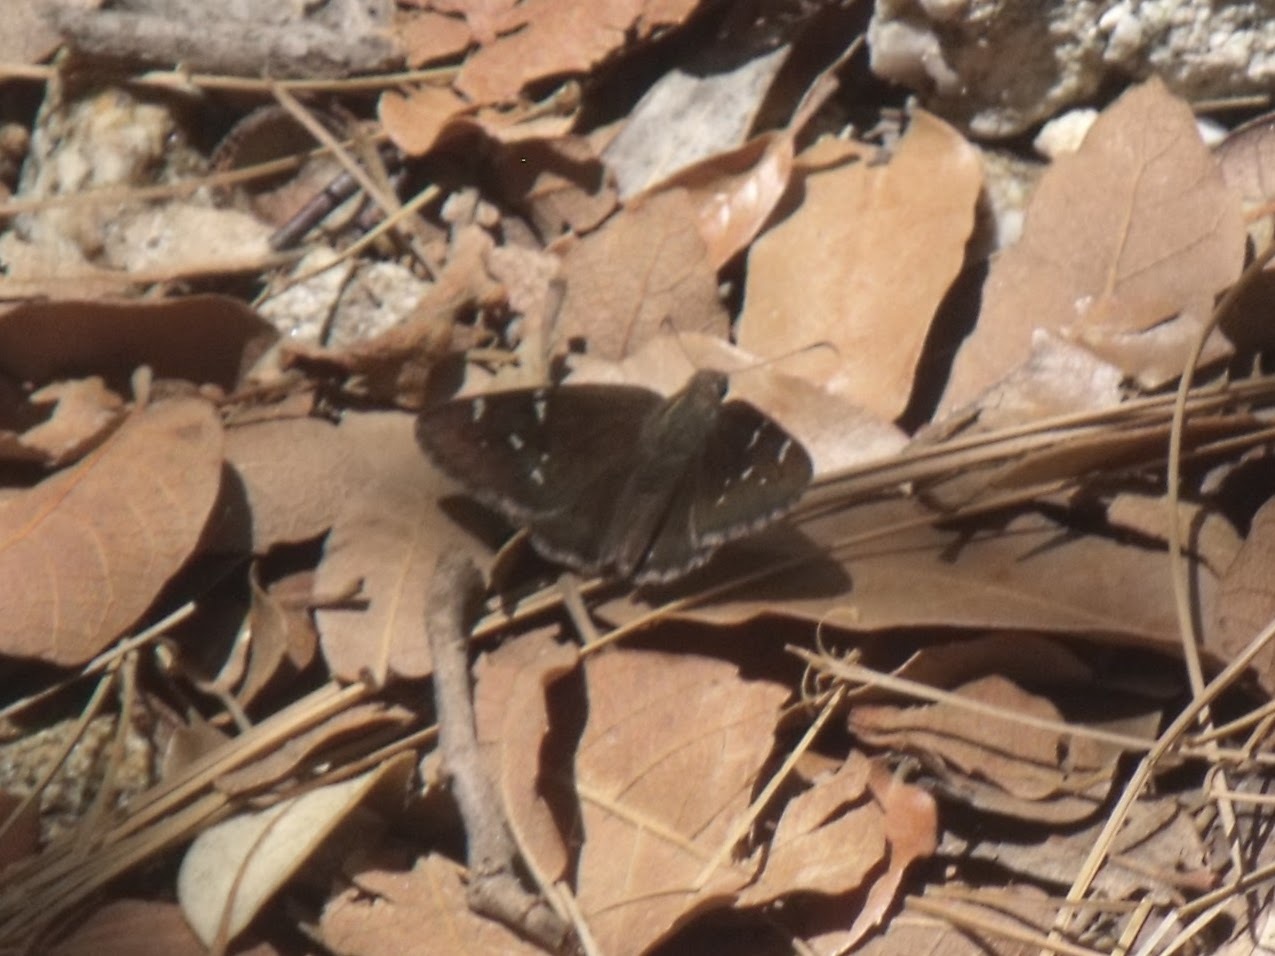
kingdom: Animalia
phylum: Arthropoda
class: Insecta
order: Lepidoptera
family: Hesperiidae
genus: Thorybes
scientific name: Thorybes pylades
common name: Northern cloudywing
